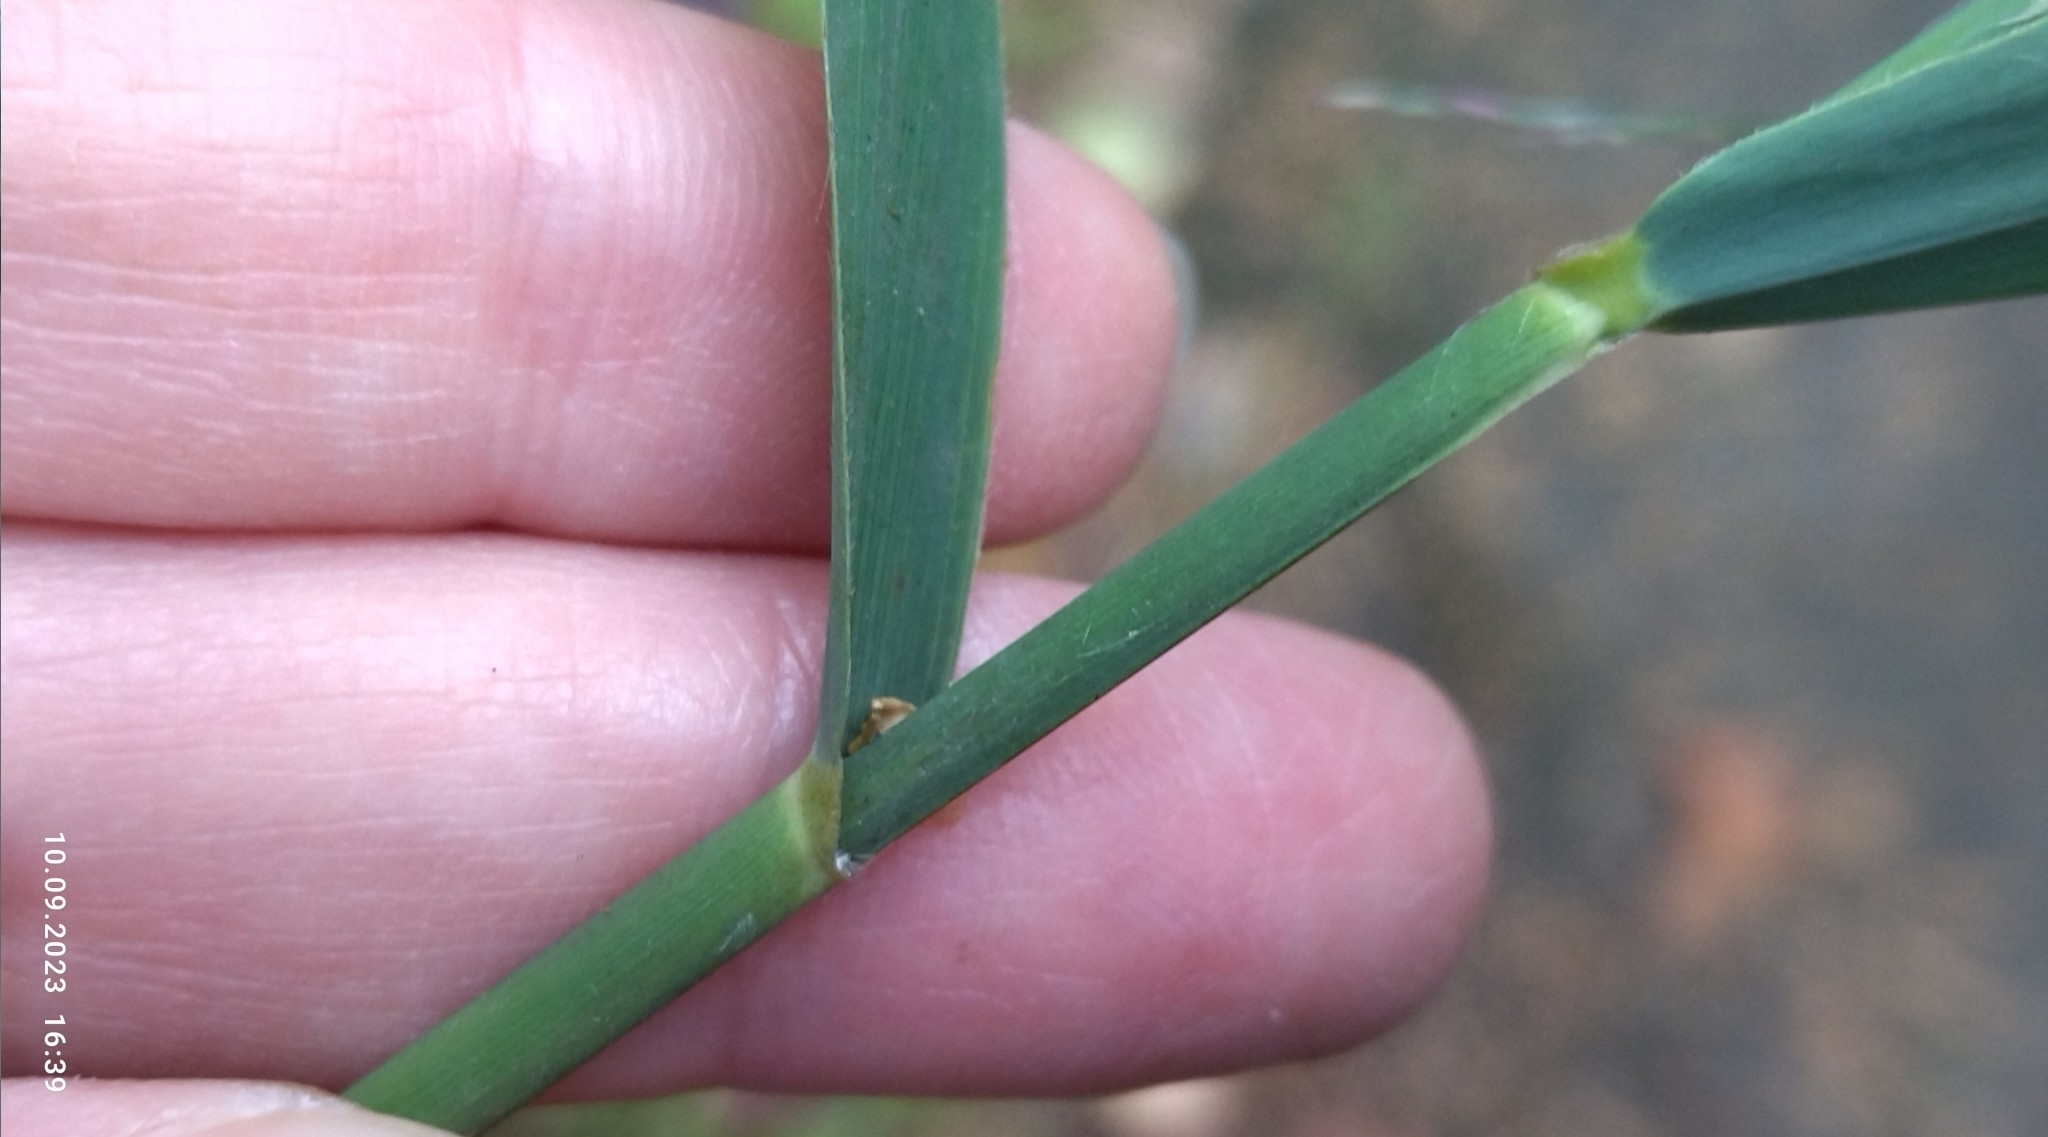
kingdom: Plantae
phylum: Tracheophyta
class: Liliopsida
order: Poales
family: Poaceae
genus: Phragmites
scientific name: Phragmites australis
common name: Common reed
